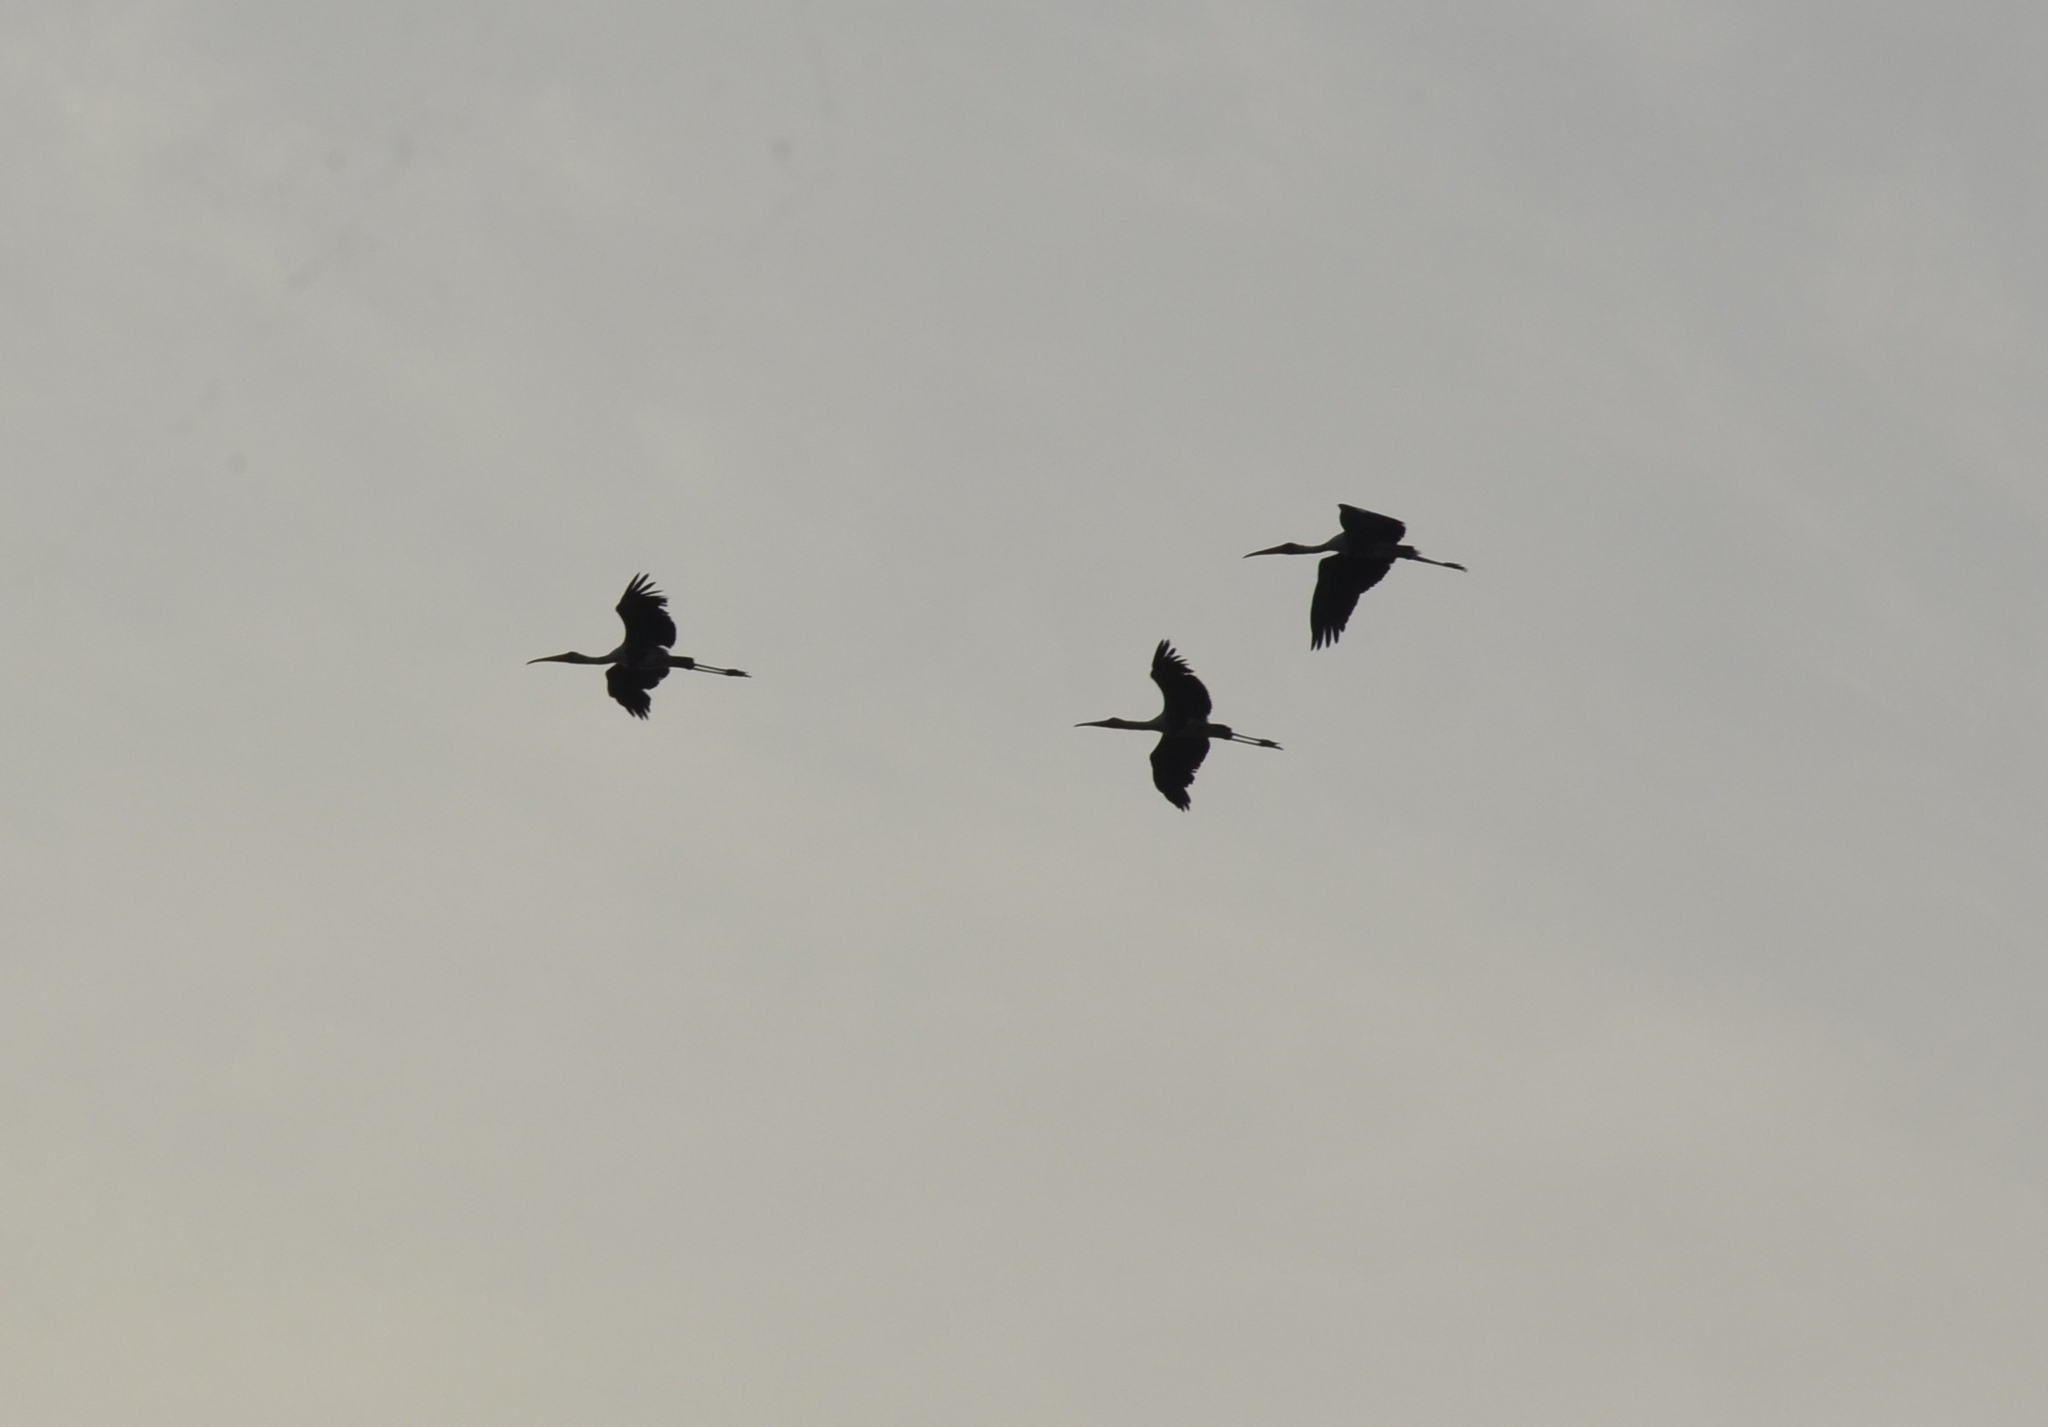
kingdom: Animalia
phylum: Chordata
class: Aves
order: Ciconiiformes
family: Ciconiidae
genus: Mycteria
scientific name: Mycteria leucocephala
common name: Painted stork
